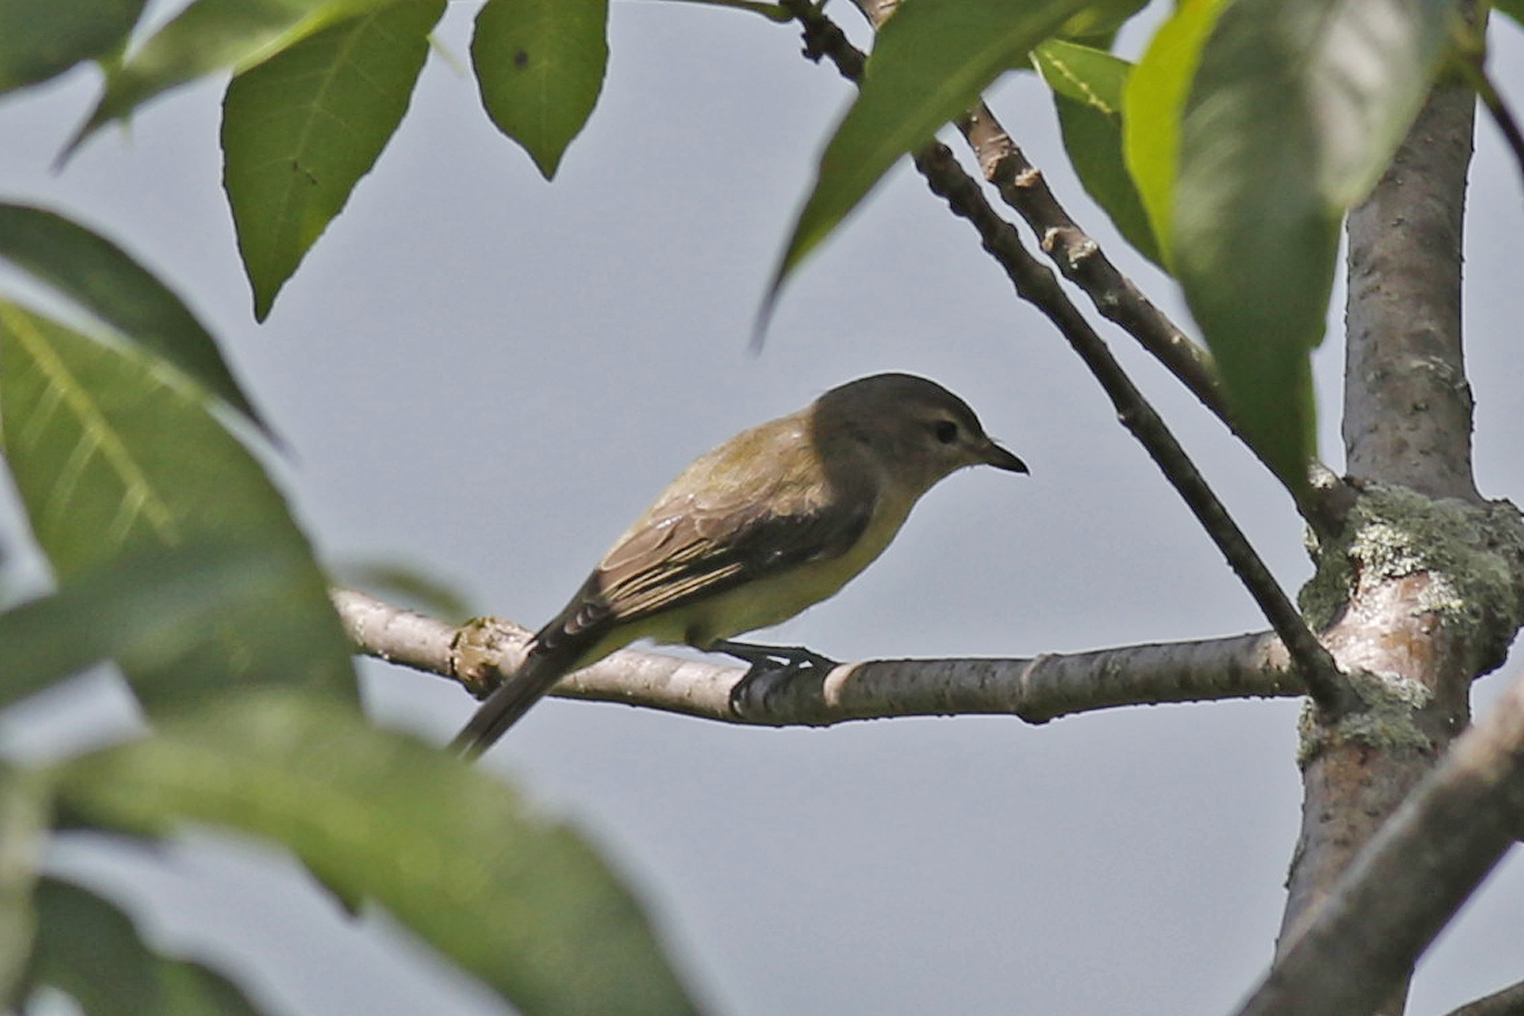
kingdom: Animalia
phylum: Chordata
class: Aves
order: Passeriformes
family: Vireonidae
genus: Vireo
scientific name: Vireo gilvus
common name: Warbling vireo
